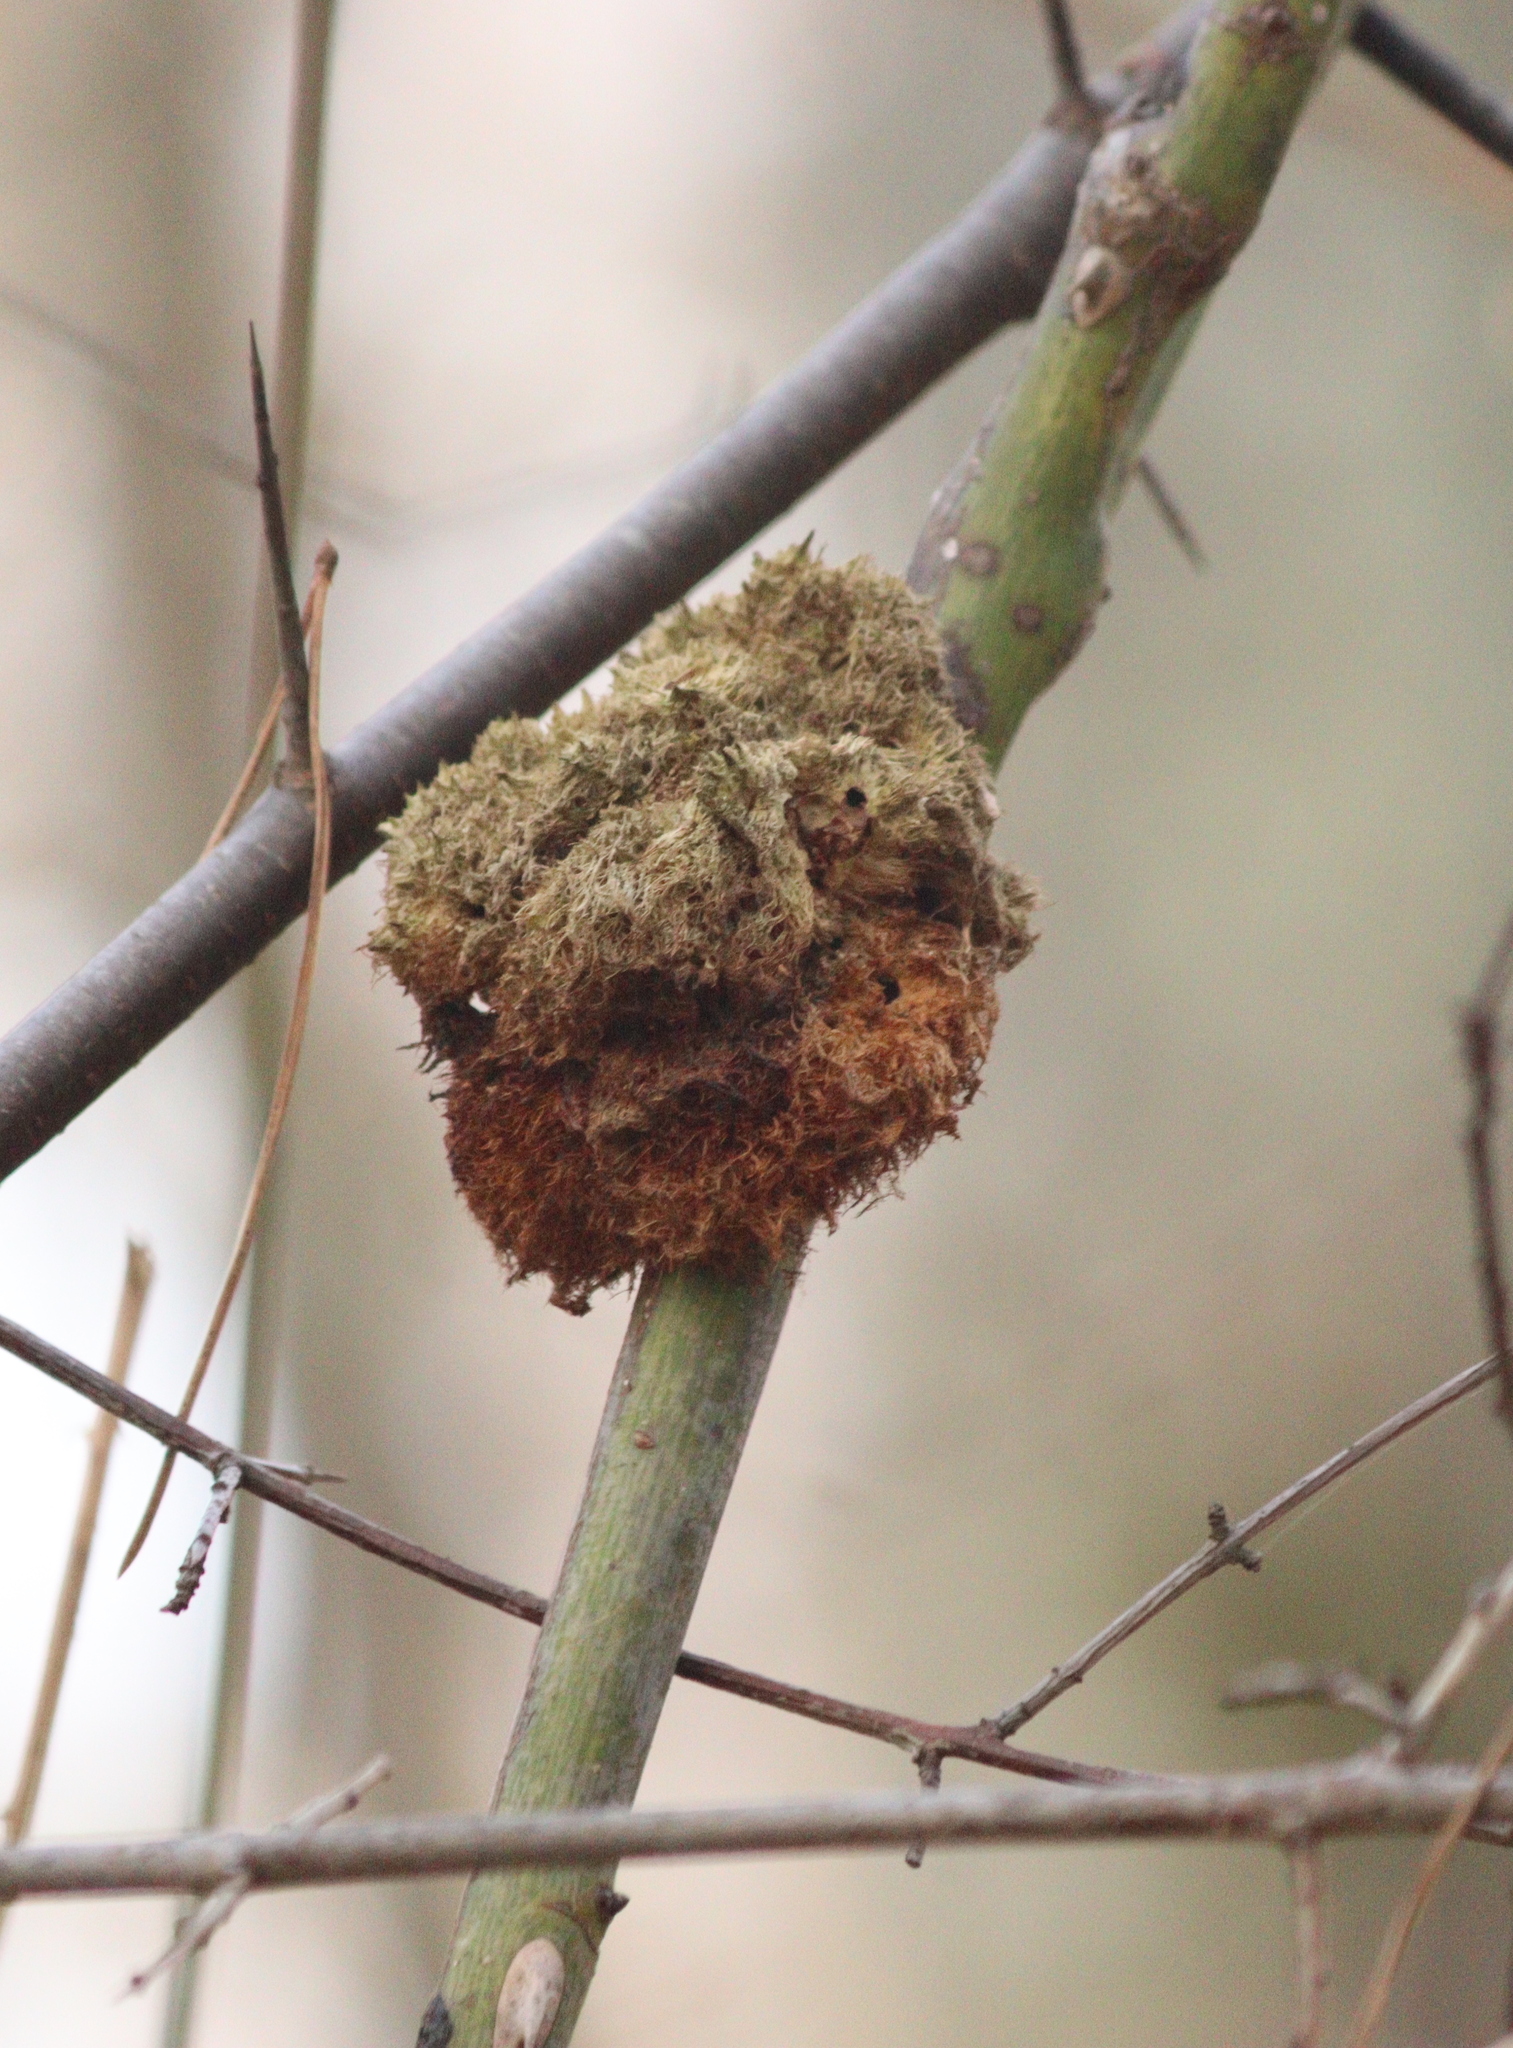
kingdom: Animalia
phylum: Arthropoda
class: Insecta
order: Hymenoptera
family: Cynipidae
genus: Diplolepis
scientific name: Diplolepis rosae
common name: Bedeguar gall
